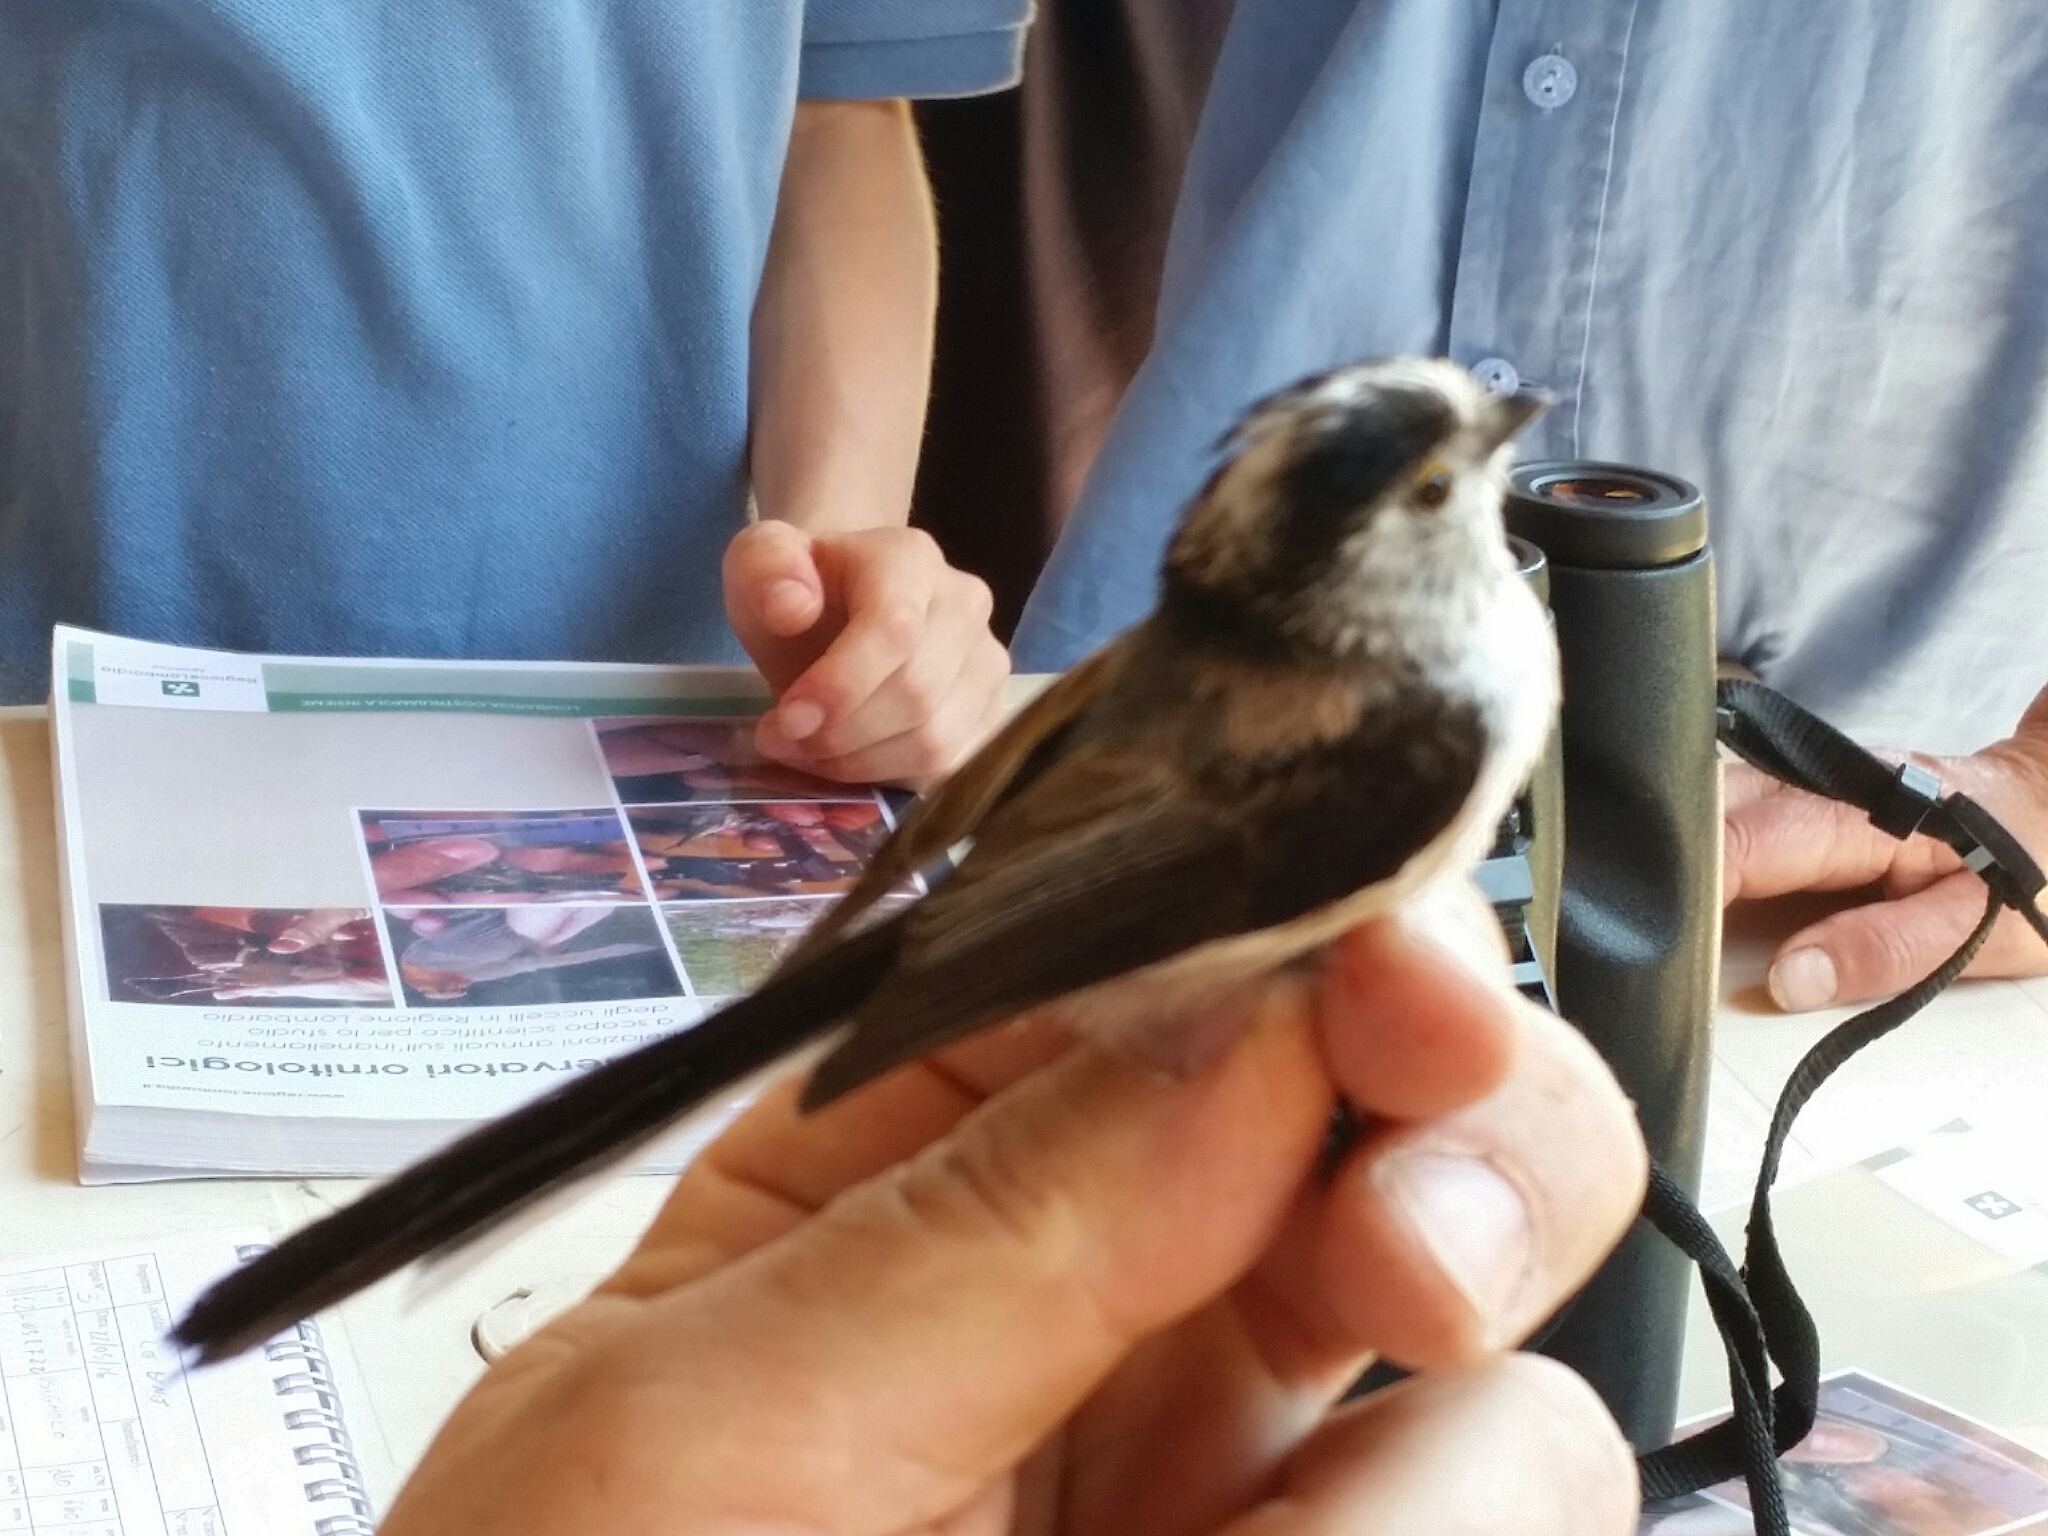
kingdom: Animalia
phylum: Chordata
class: Aves
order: Passeriformes
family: Aegithalidae
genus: Aegithalos
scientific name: Aegithalos caudatus
